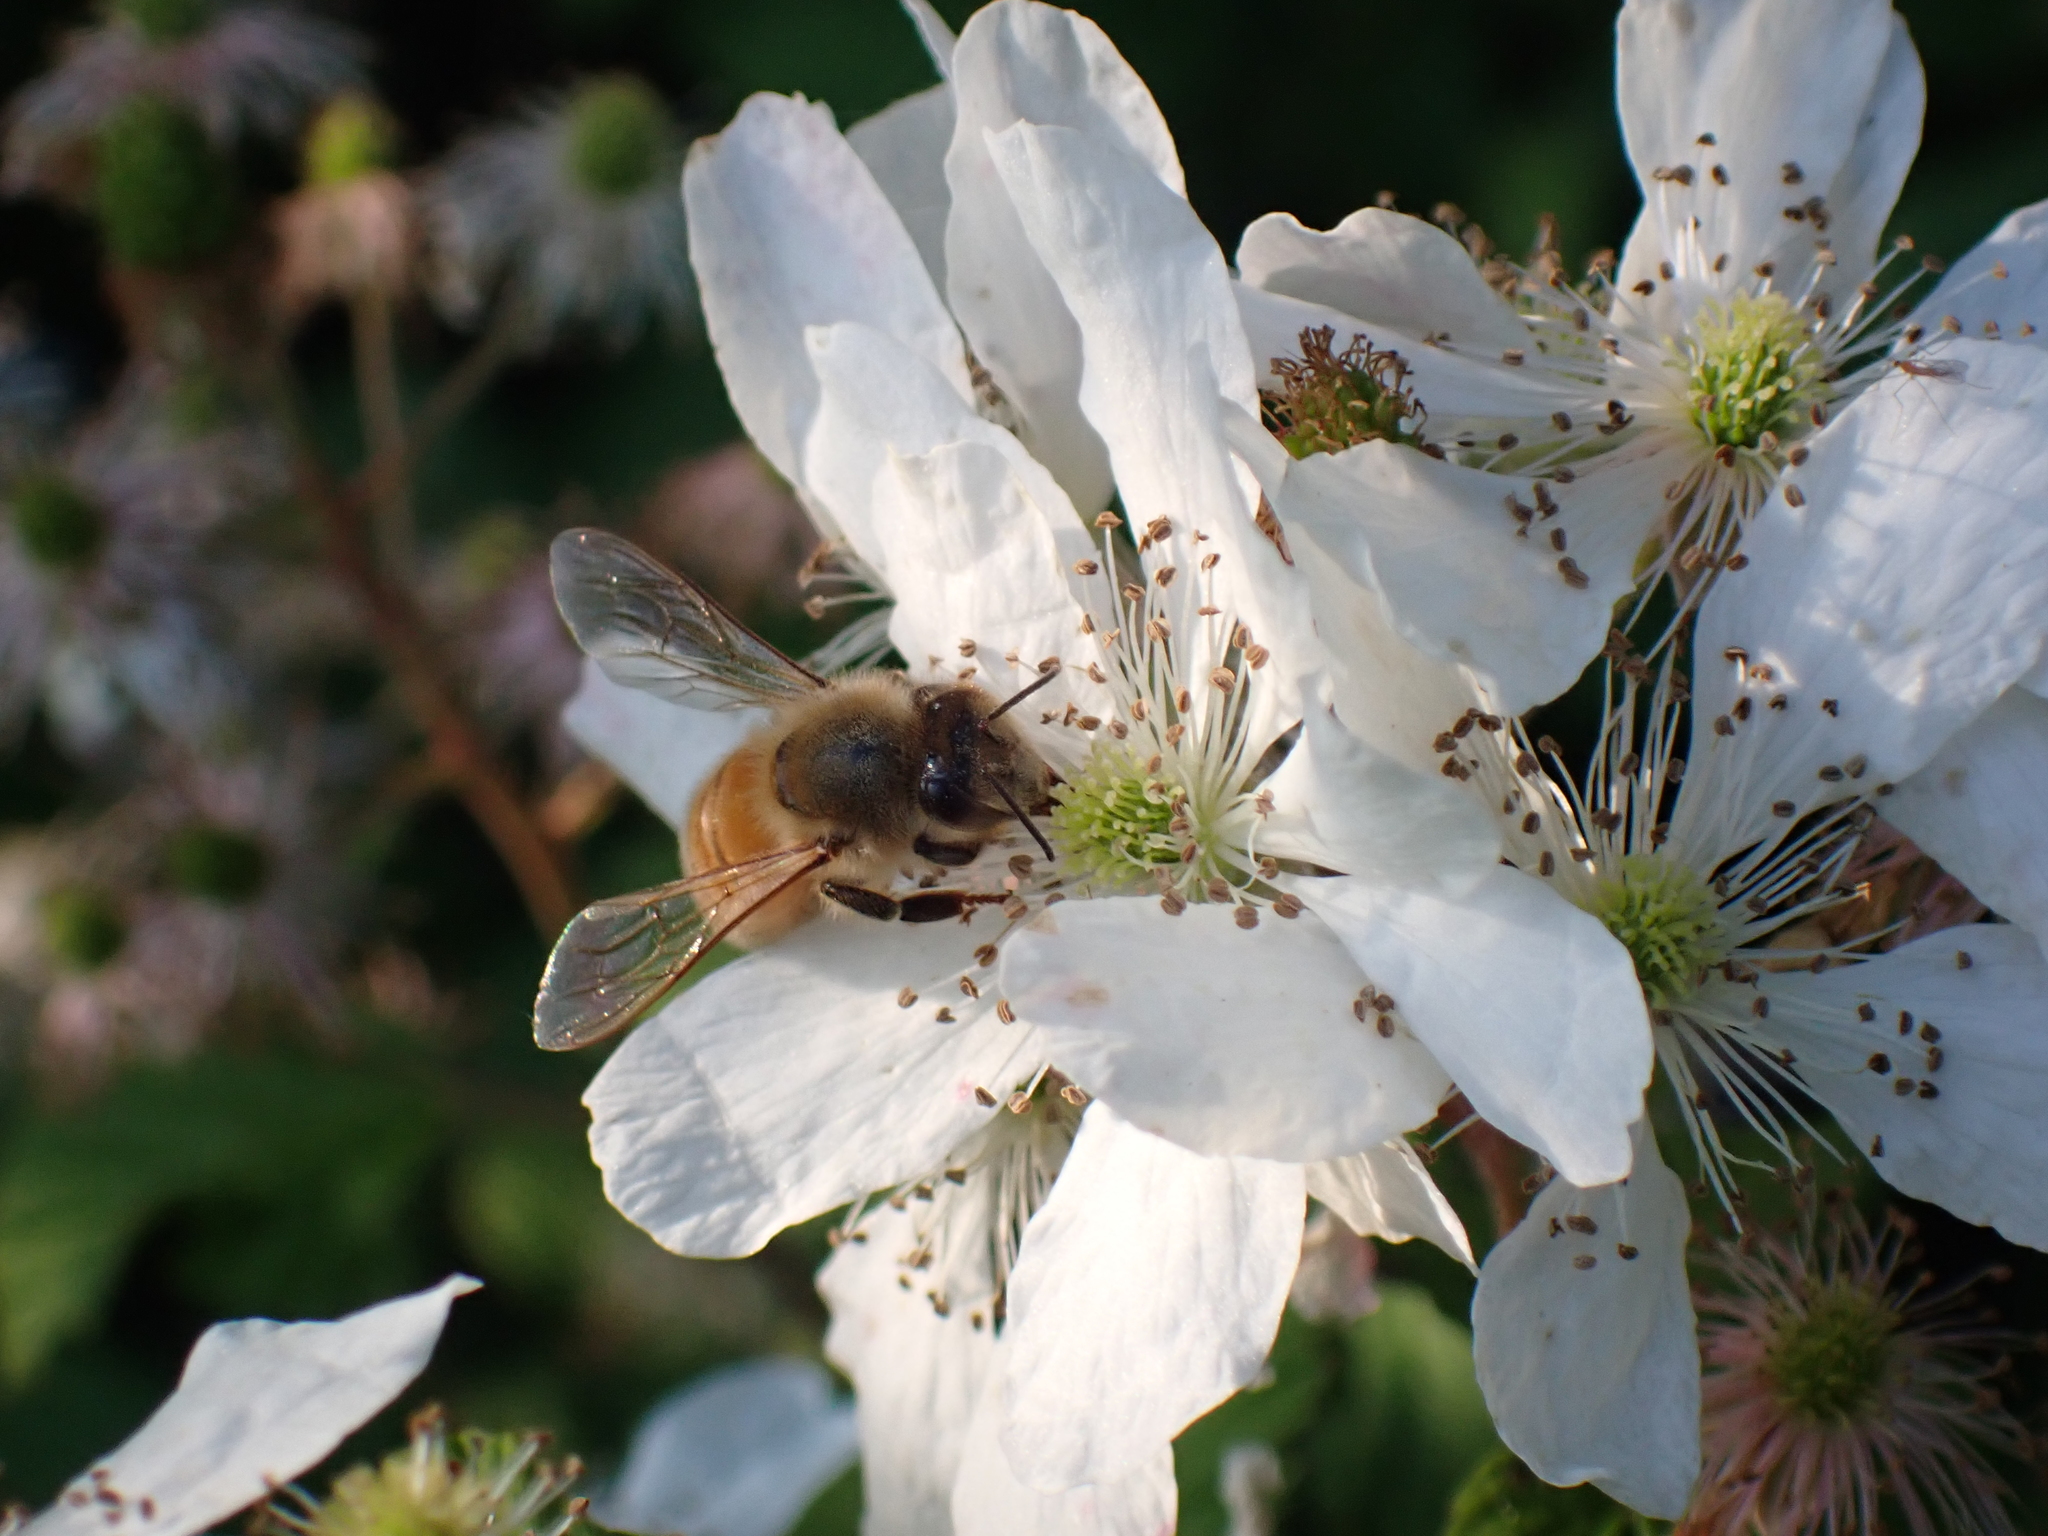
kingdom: Animalia
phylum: Arthropoda
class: Insecta
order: Hymenoptera
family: Apidae
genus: Apis
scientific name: Apis mellifera
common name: Honey bee
